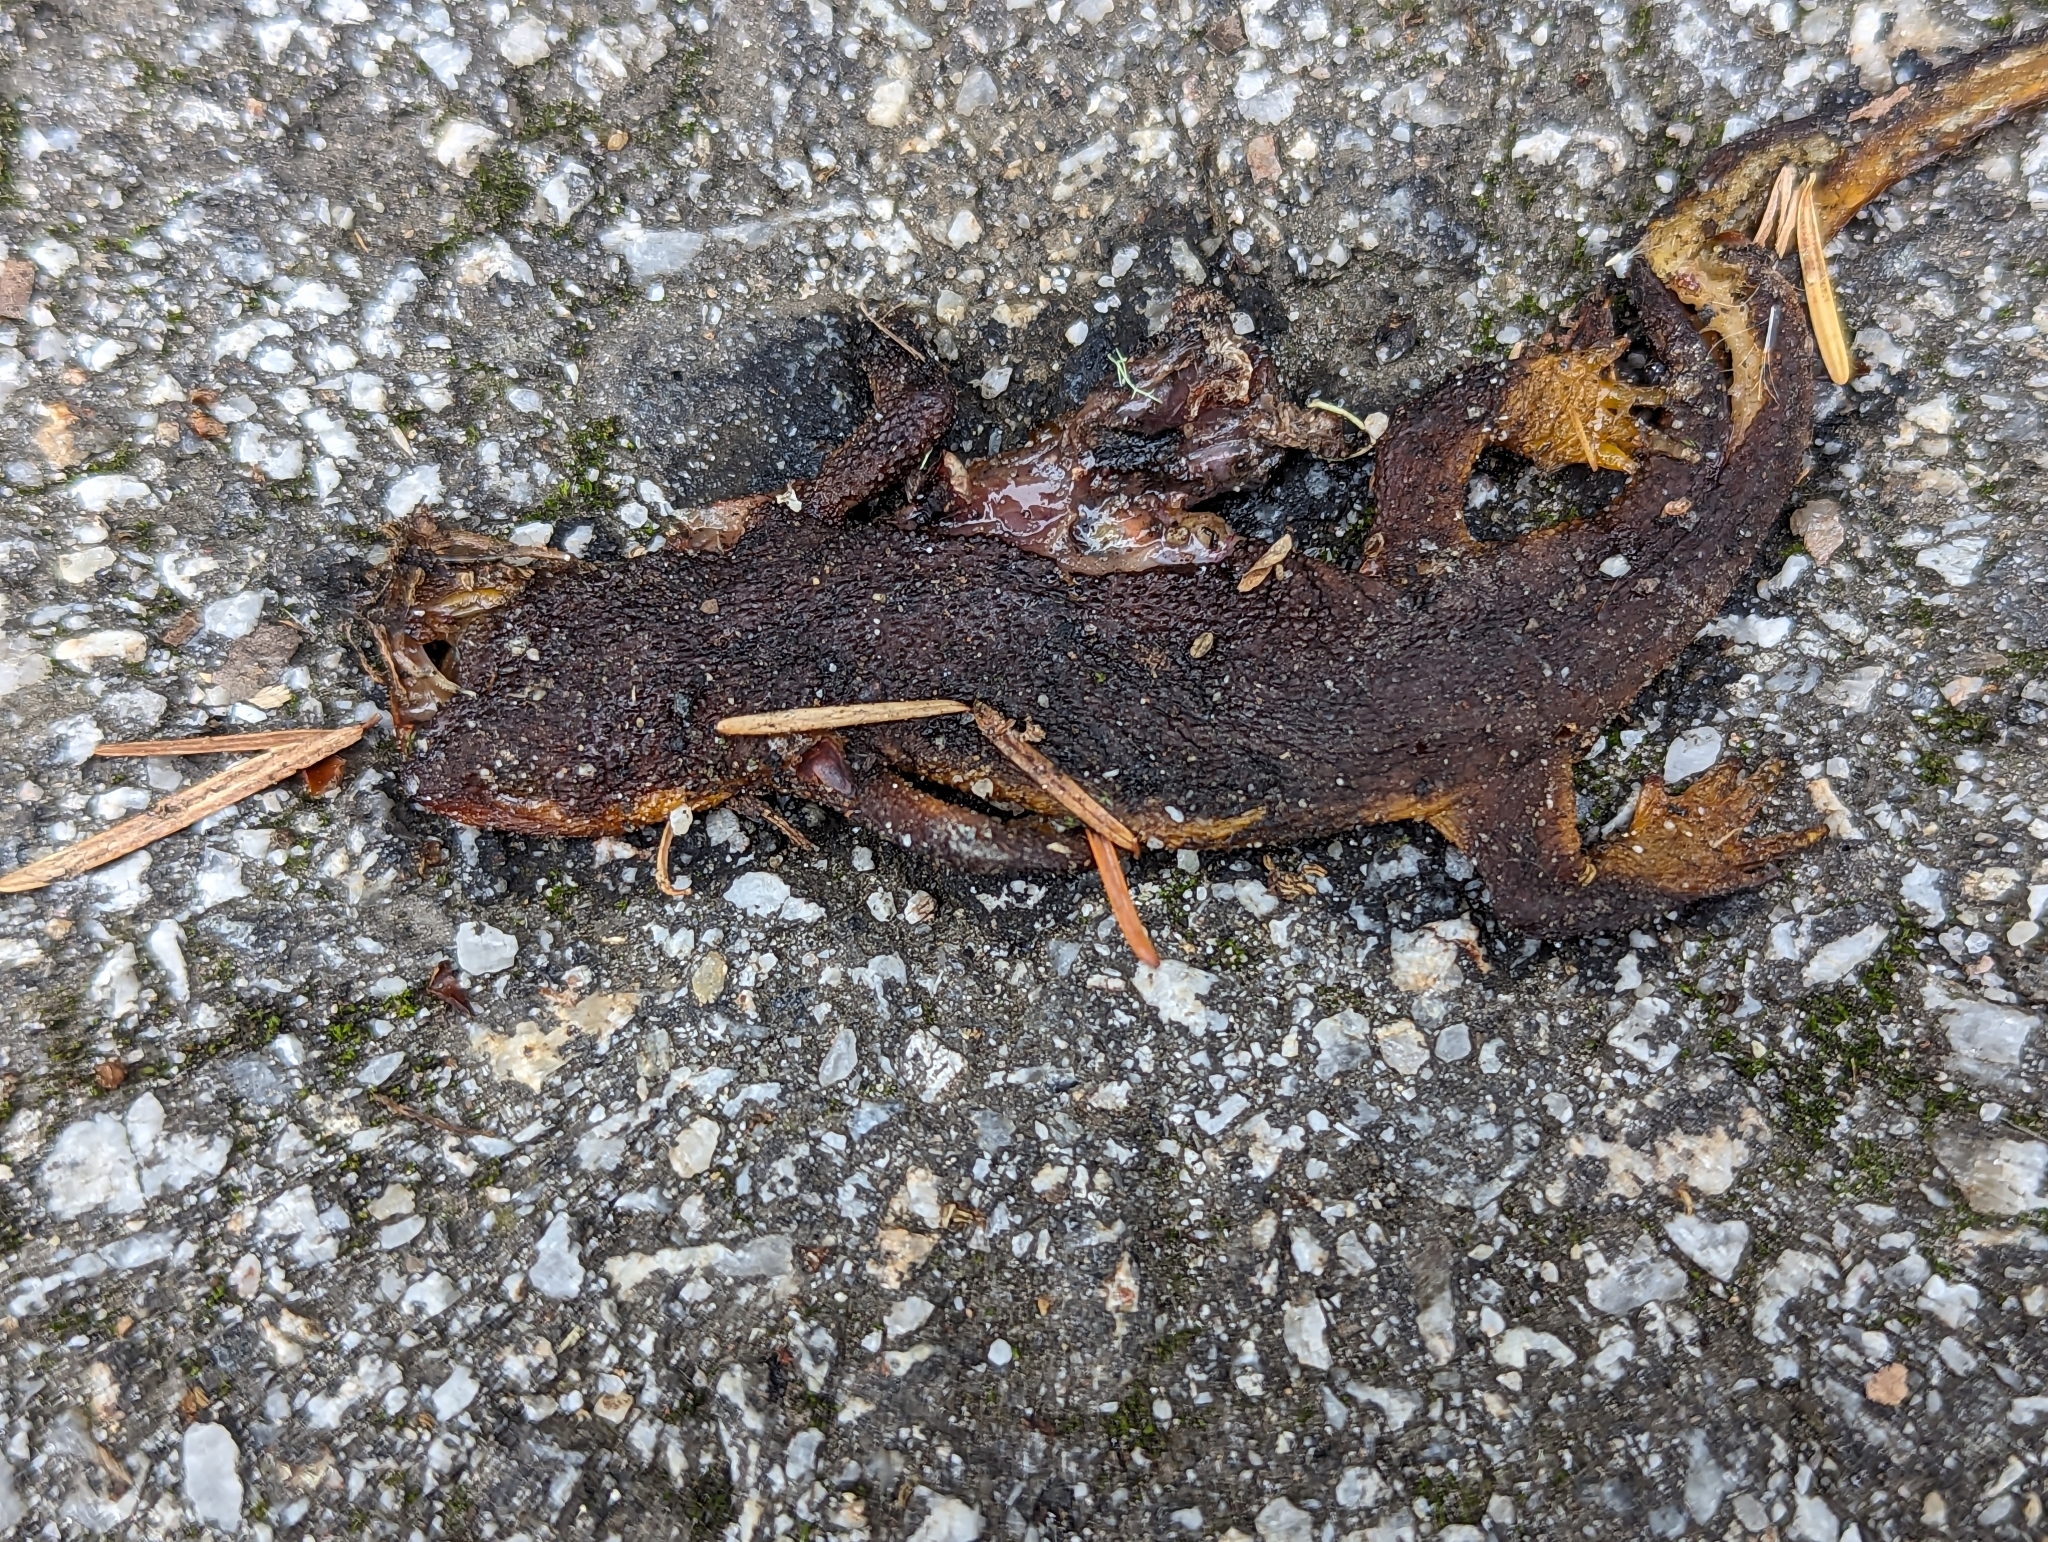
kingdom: Animalia
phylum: Chordata
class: Amphibia
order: Caudata
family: Salamandridae
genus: Taricha
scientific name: Taricha
